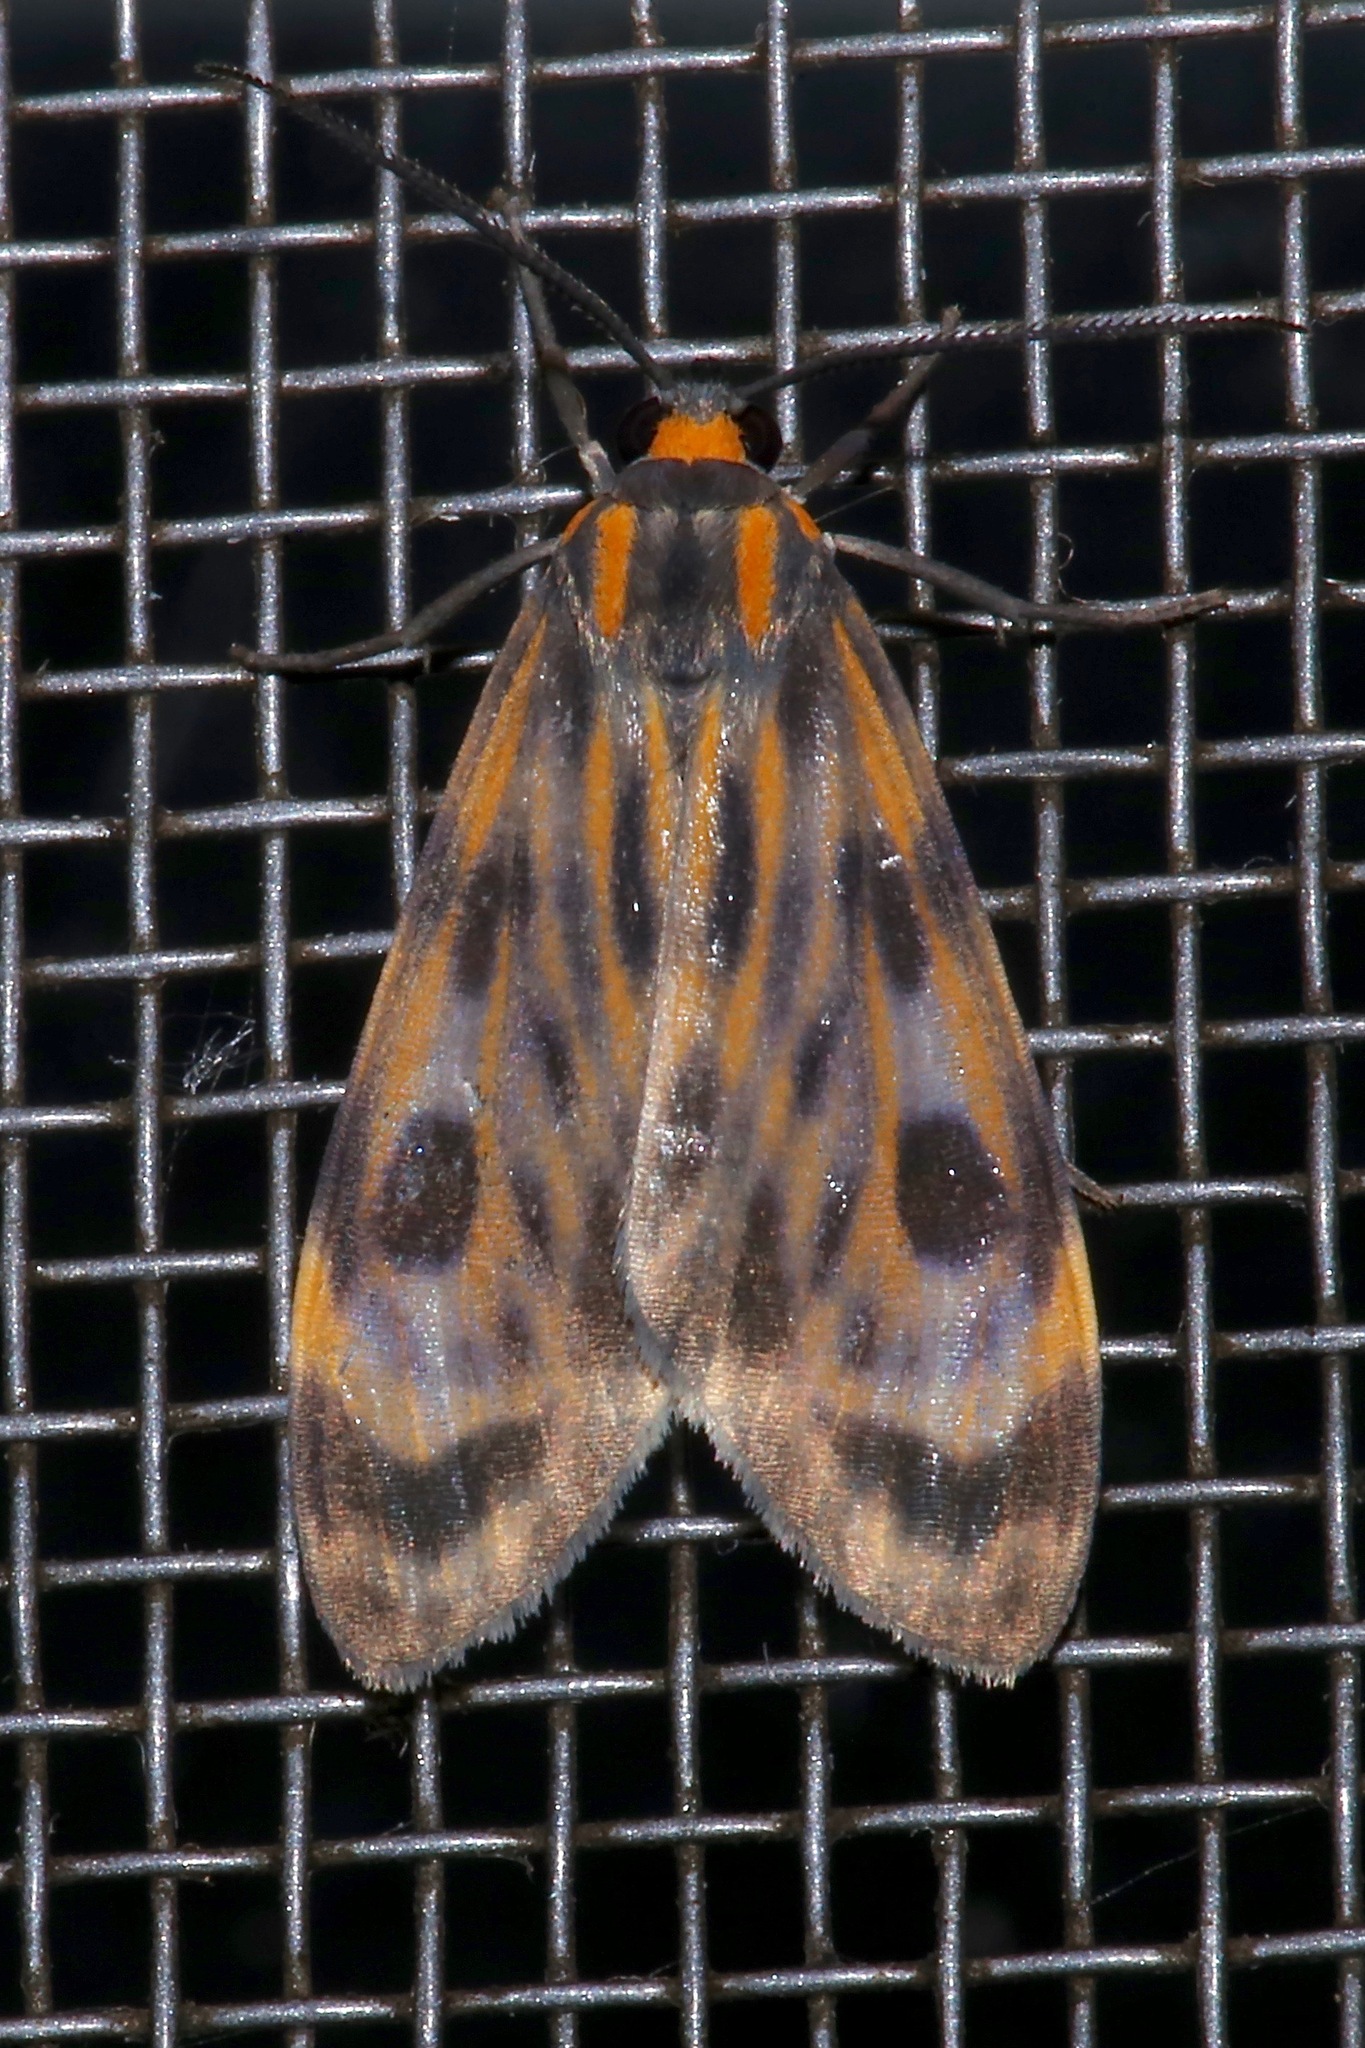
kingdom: Animalia
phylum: Arthropoda
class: Insecta
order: Lepidoptera
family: Erebidae
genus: Eucereon
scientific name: Eucereon phaeoproctum
